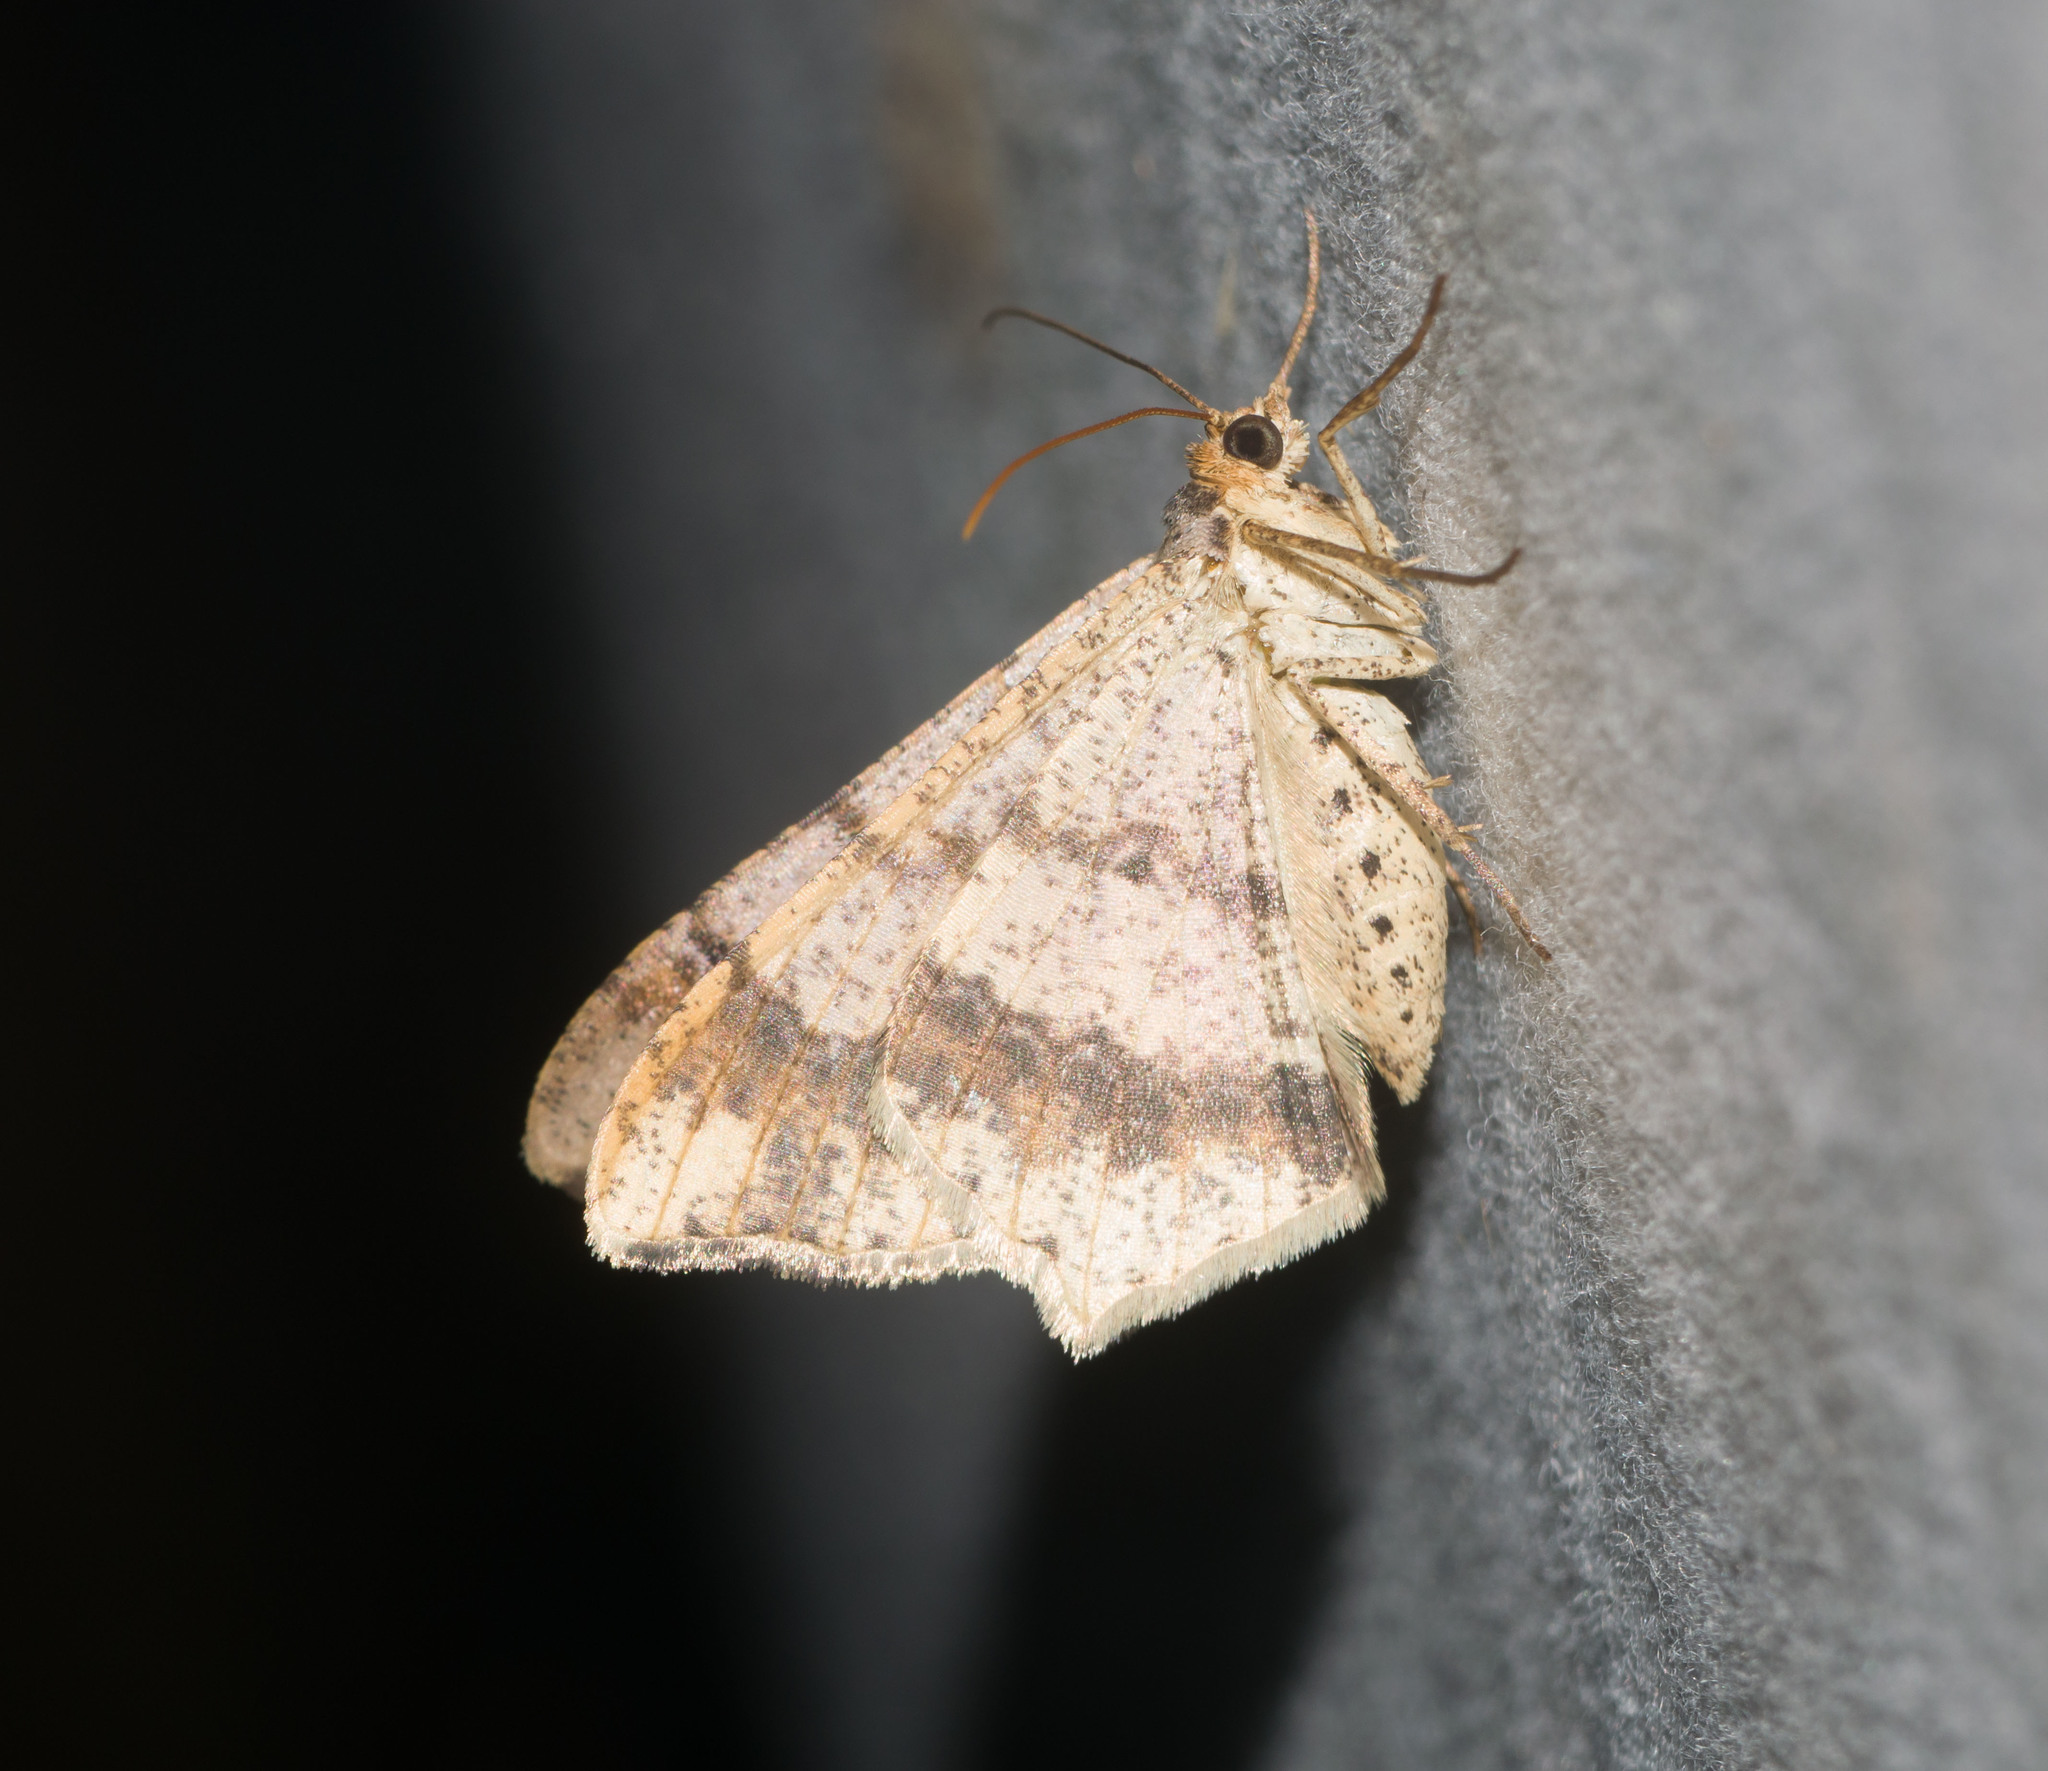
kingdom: Animalia
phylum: Arthropoda
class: Insecta
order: Lepidoptera
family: Geometridae
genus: Macaria
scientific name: Macaria abydata
